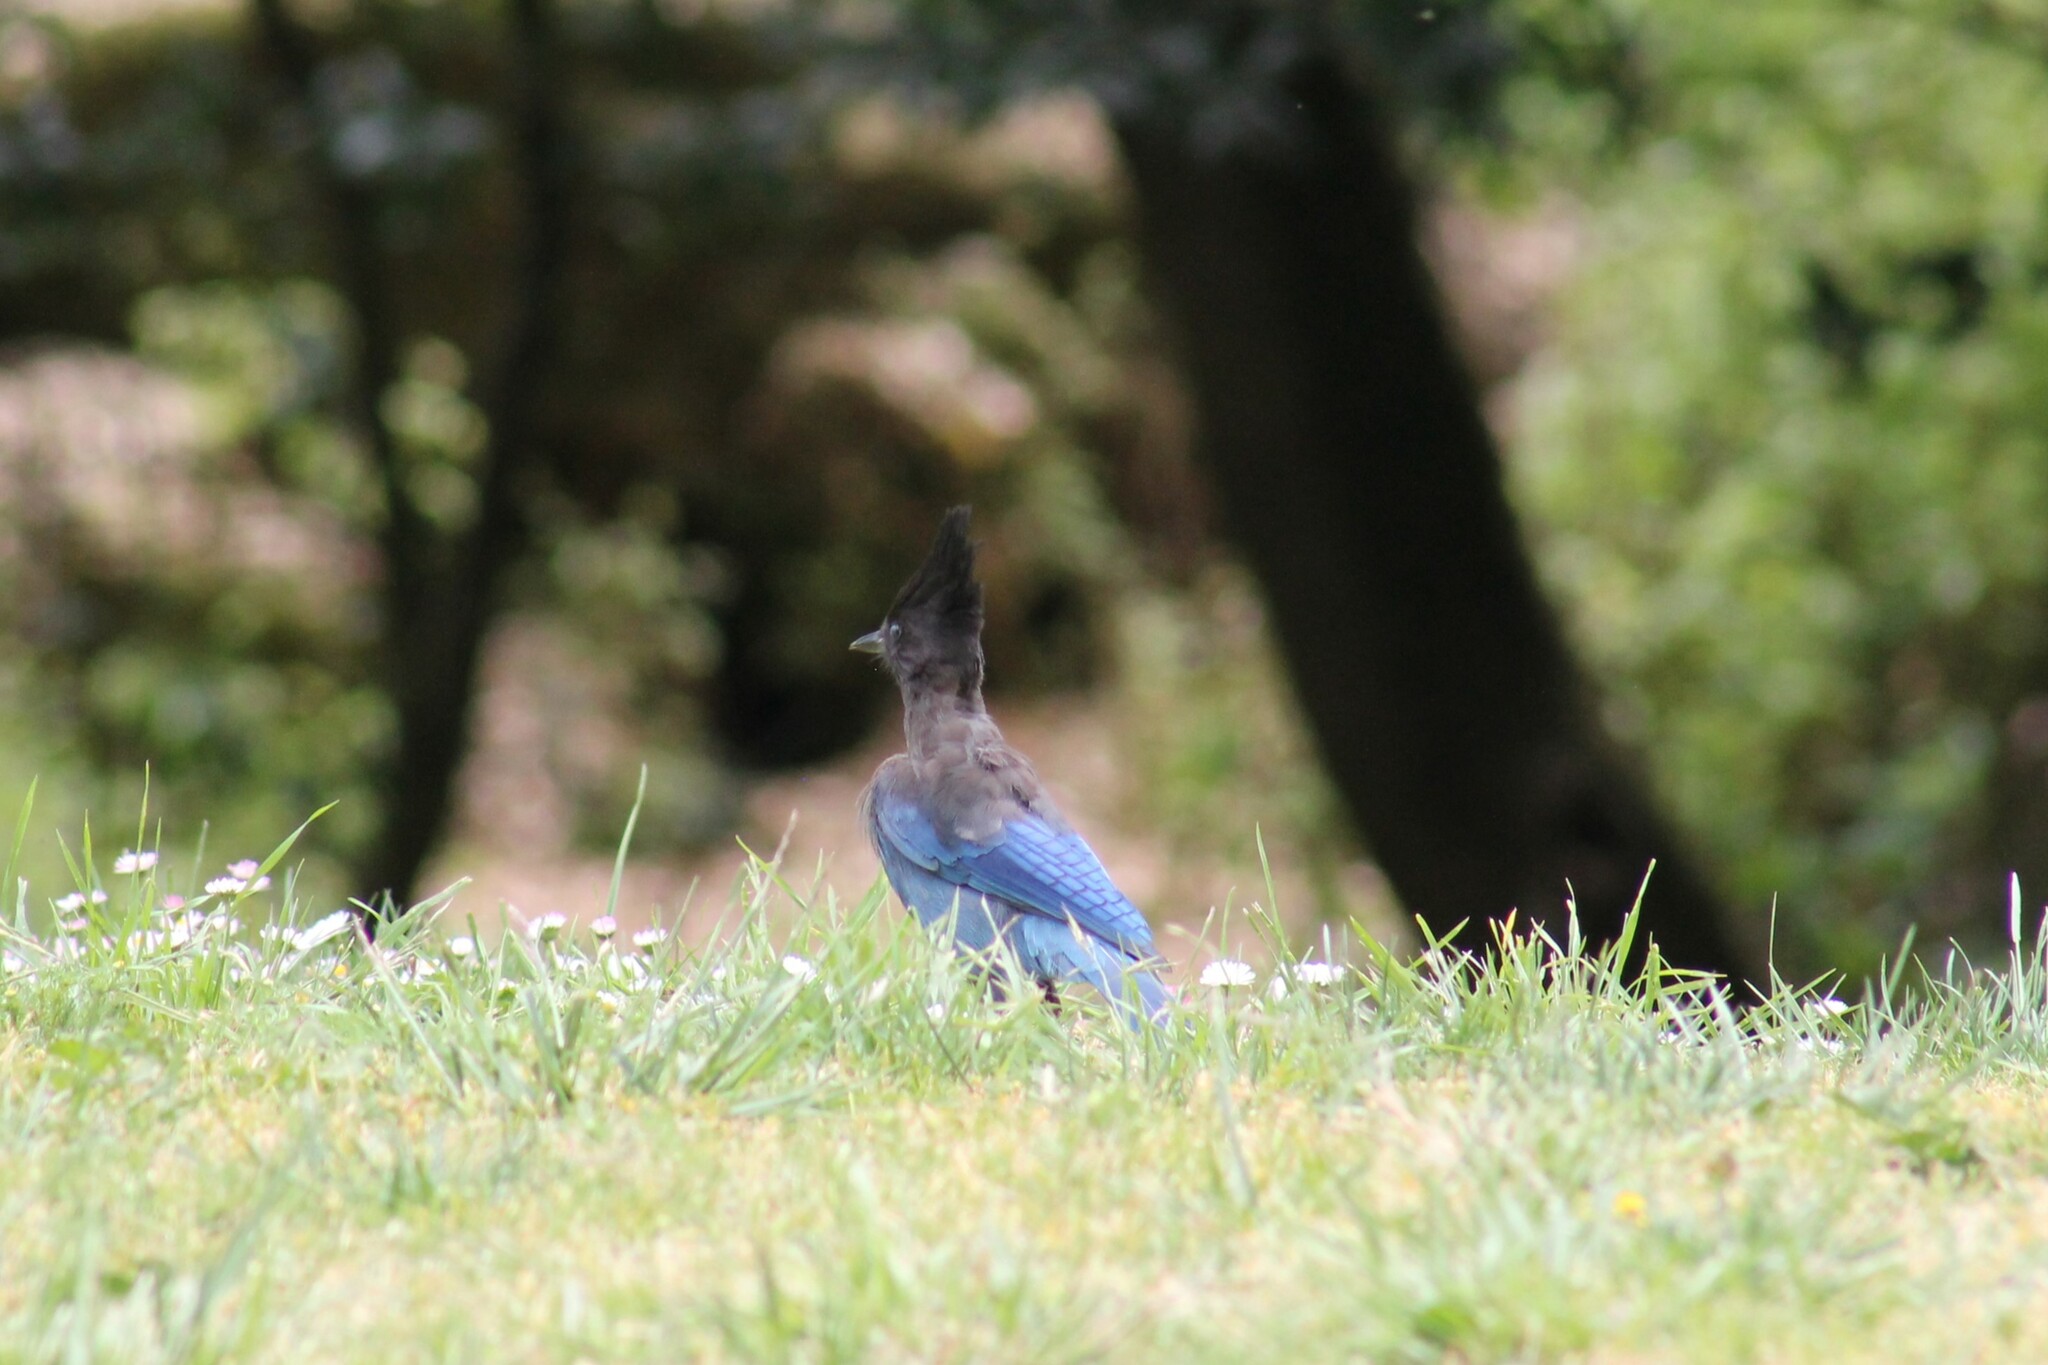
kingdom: Animalia
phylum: Chordata
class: Aves
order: Passeriformes
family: Corvidae
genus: Cyanocitta
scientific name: Cyanocitta stelleri
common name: Steller's jay
